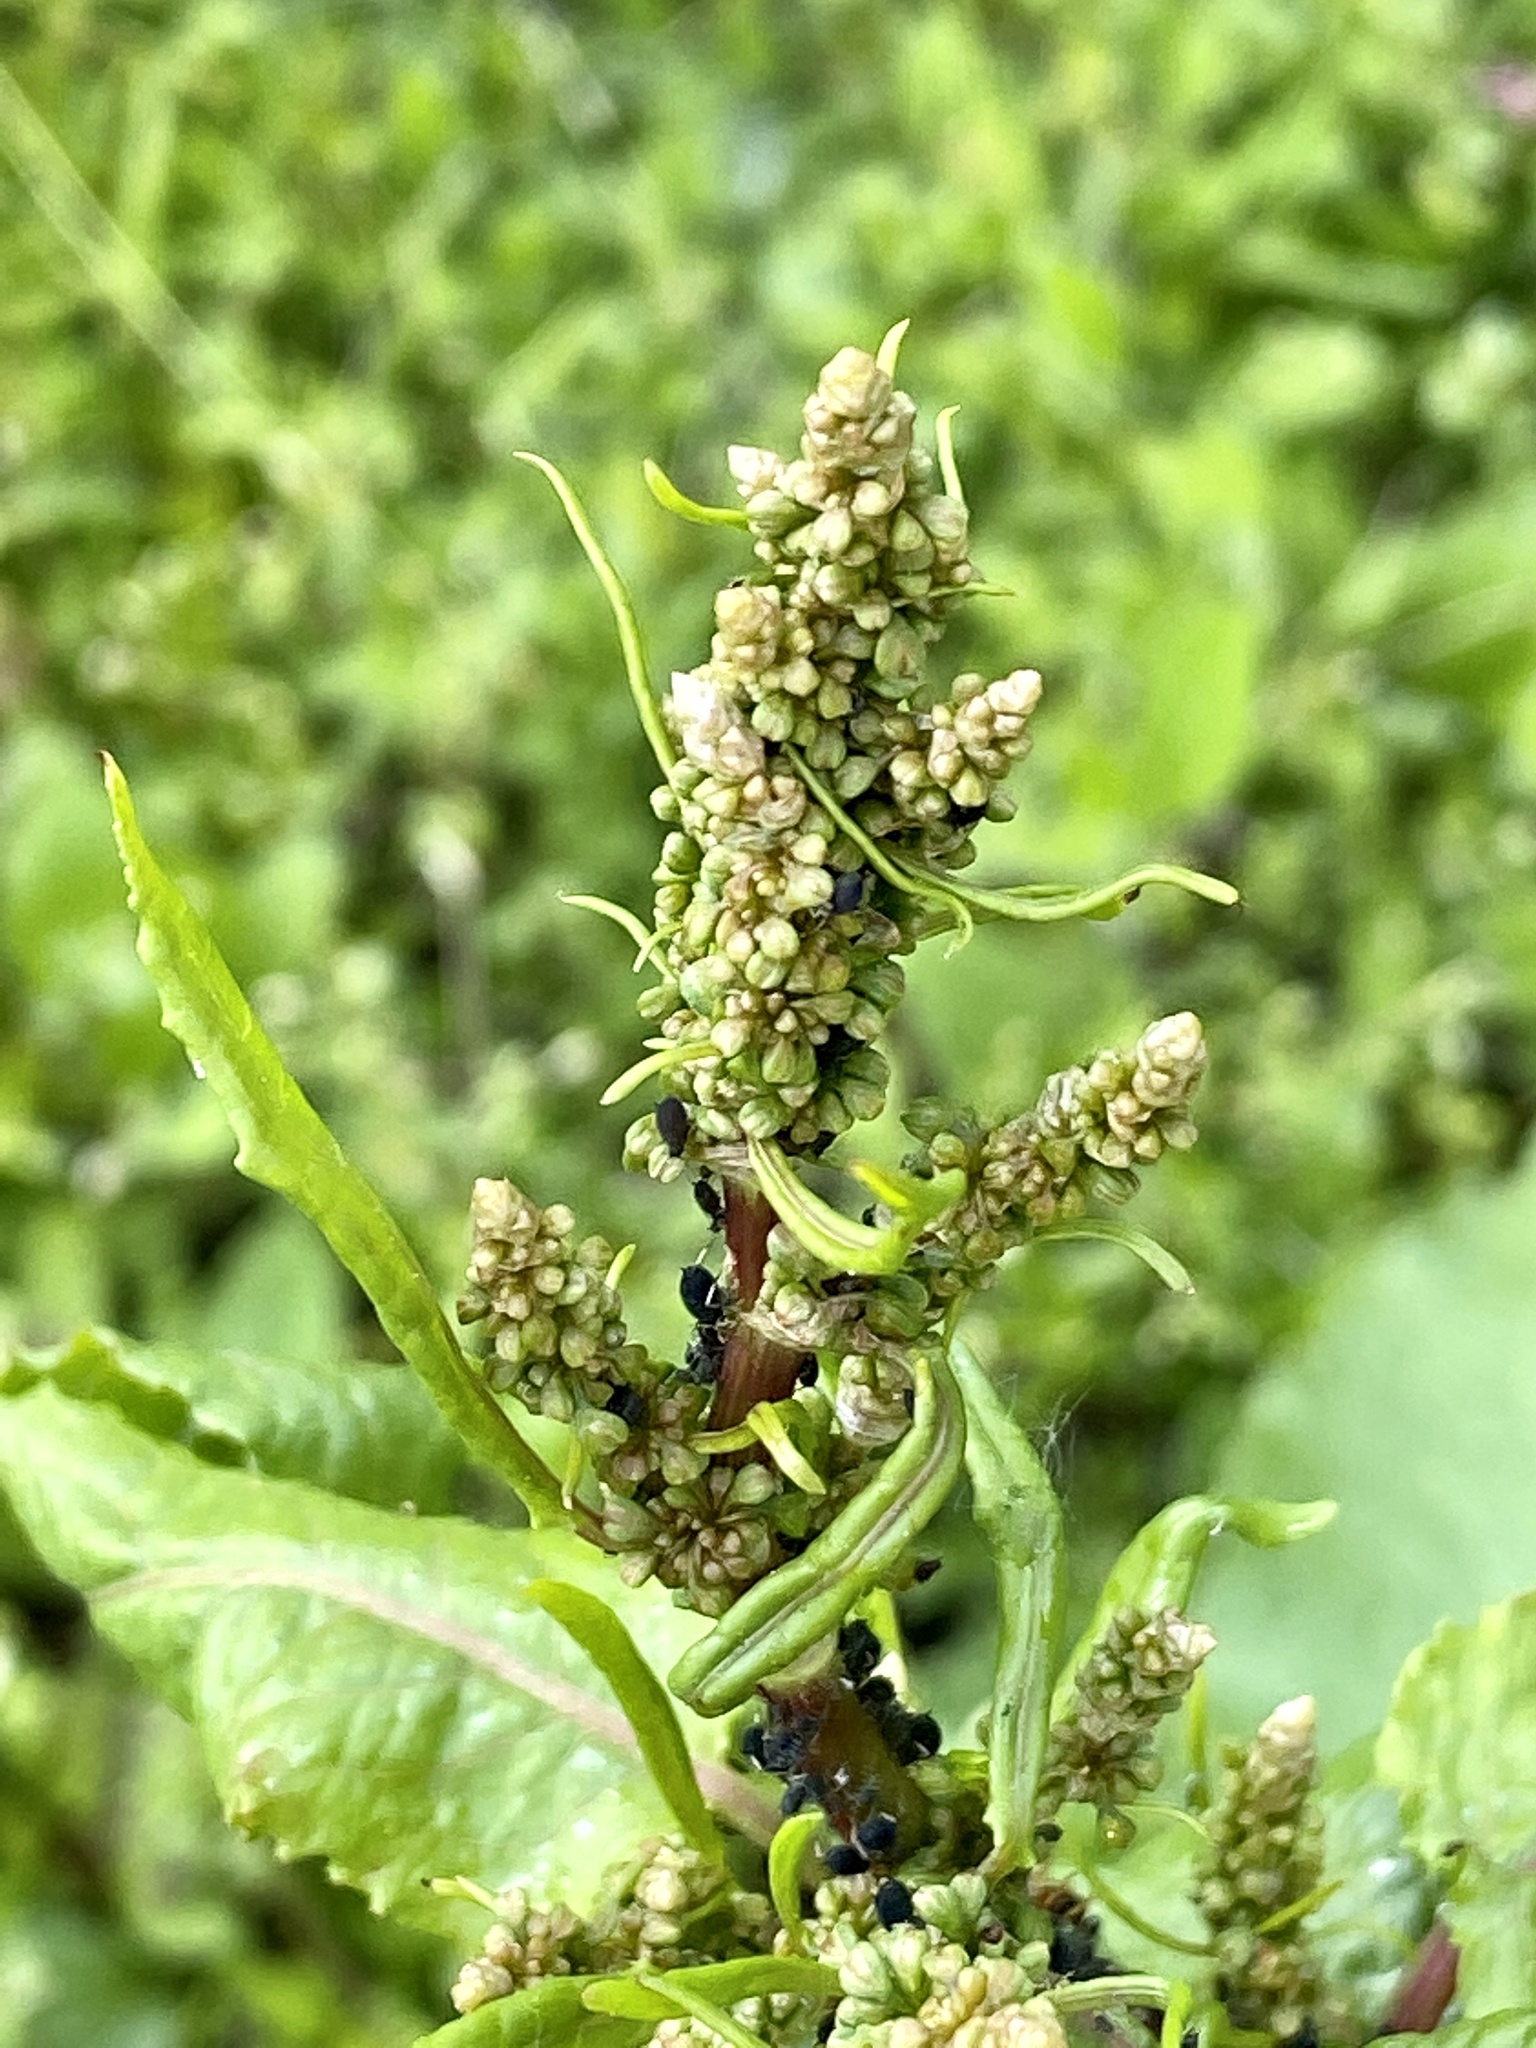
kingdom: Plantae
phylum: Tracheophyta
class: Magnoliopsida
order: Caryophyllales
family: Polygonaceae
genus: Rumex
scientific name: Rumex obtusifolius
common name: Bitter dock
